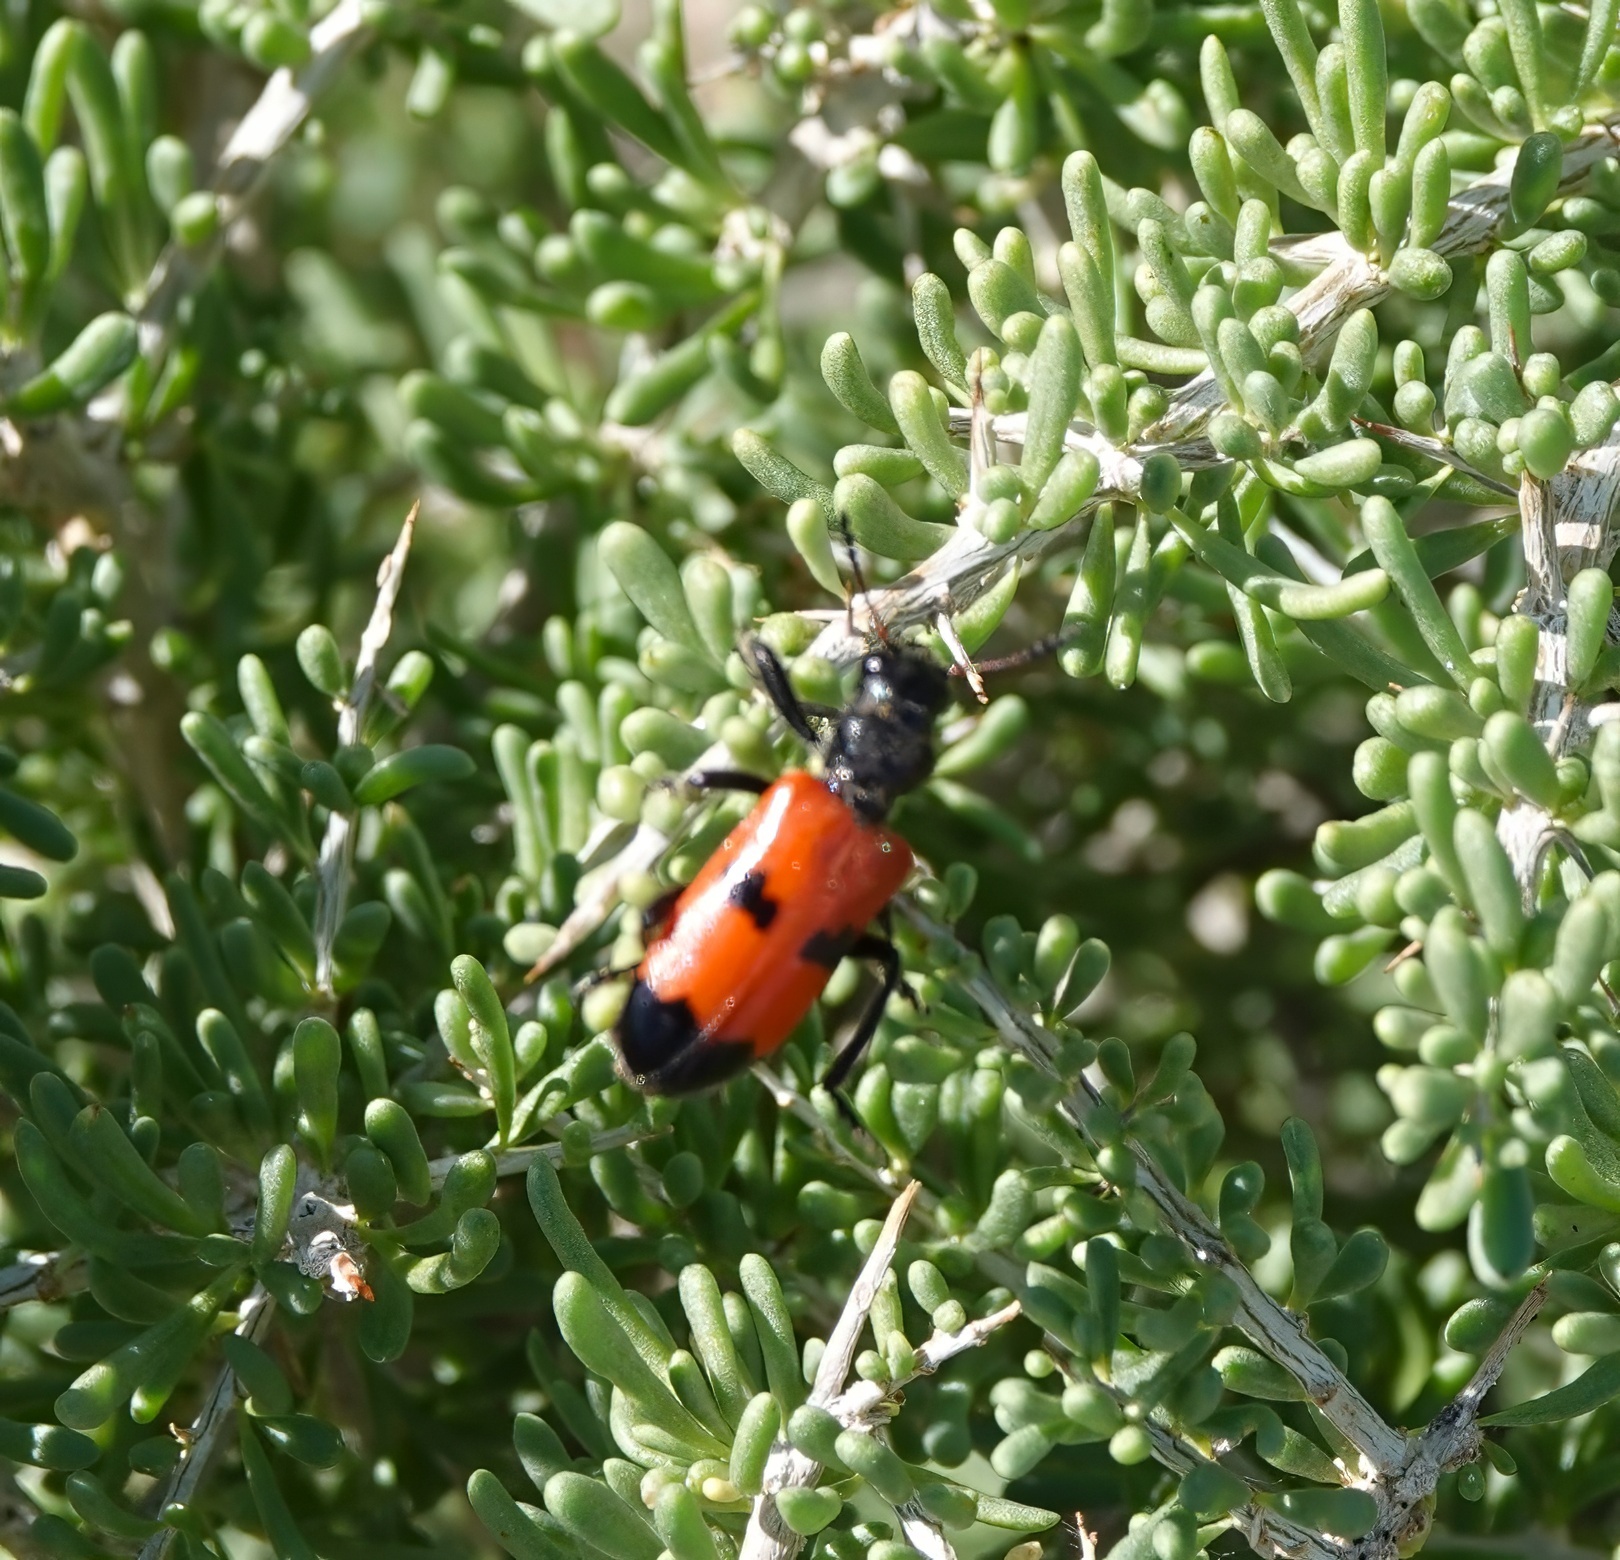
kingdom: Animalia
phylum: Arthropoda
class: Insecta
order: Coleoptera
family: Cleridae
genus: Aulicus
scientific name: Aulicus edwardsi
